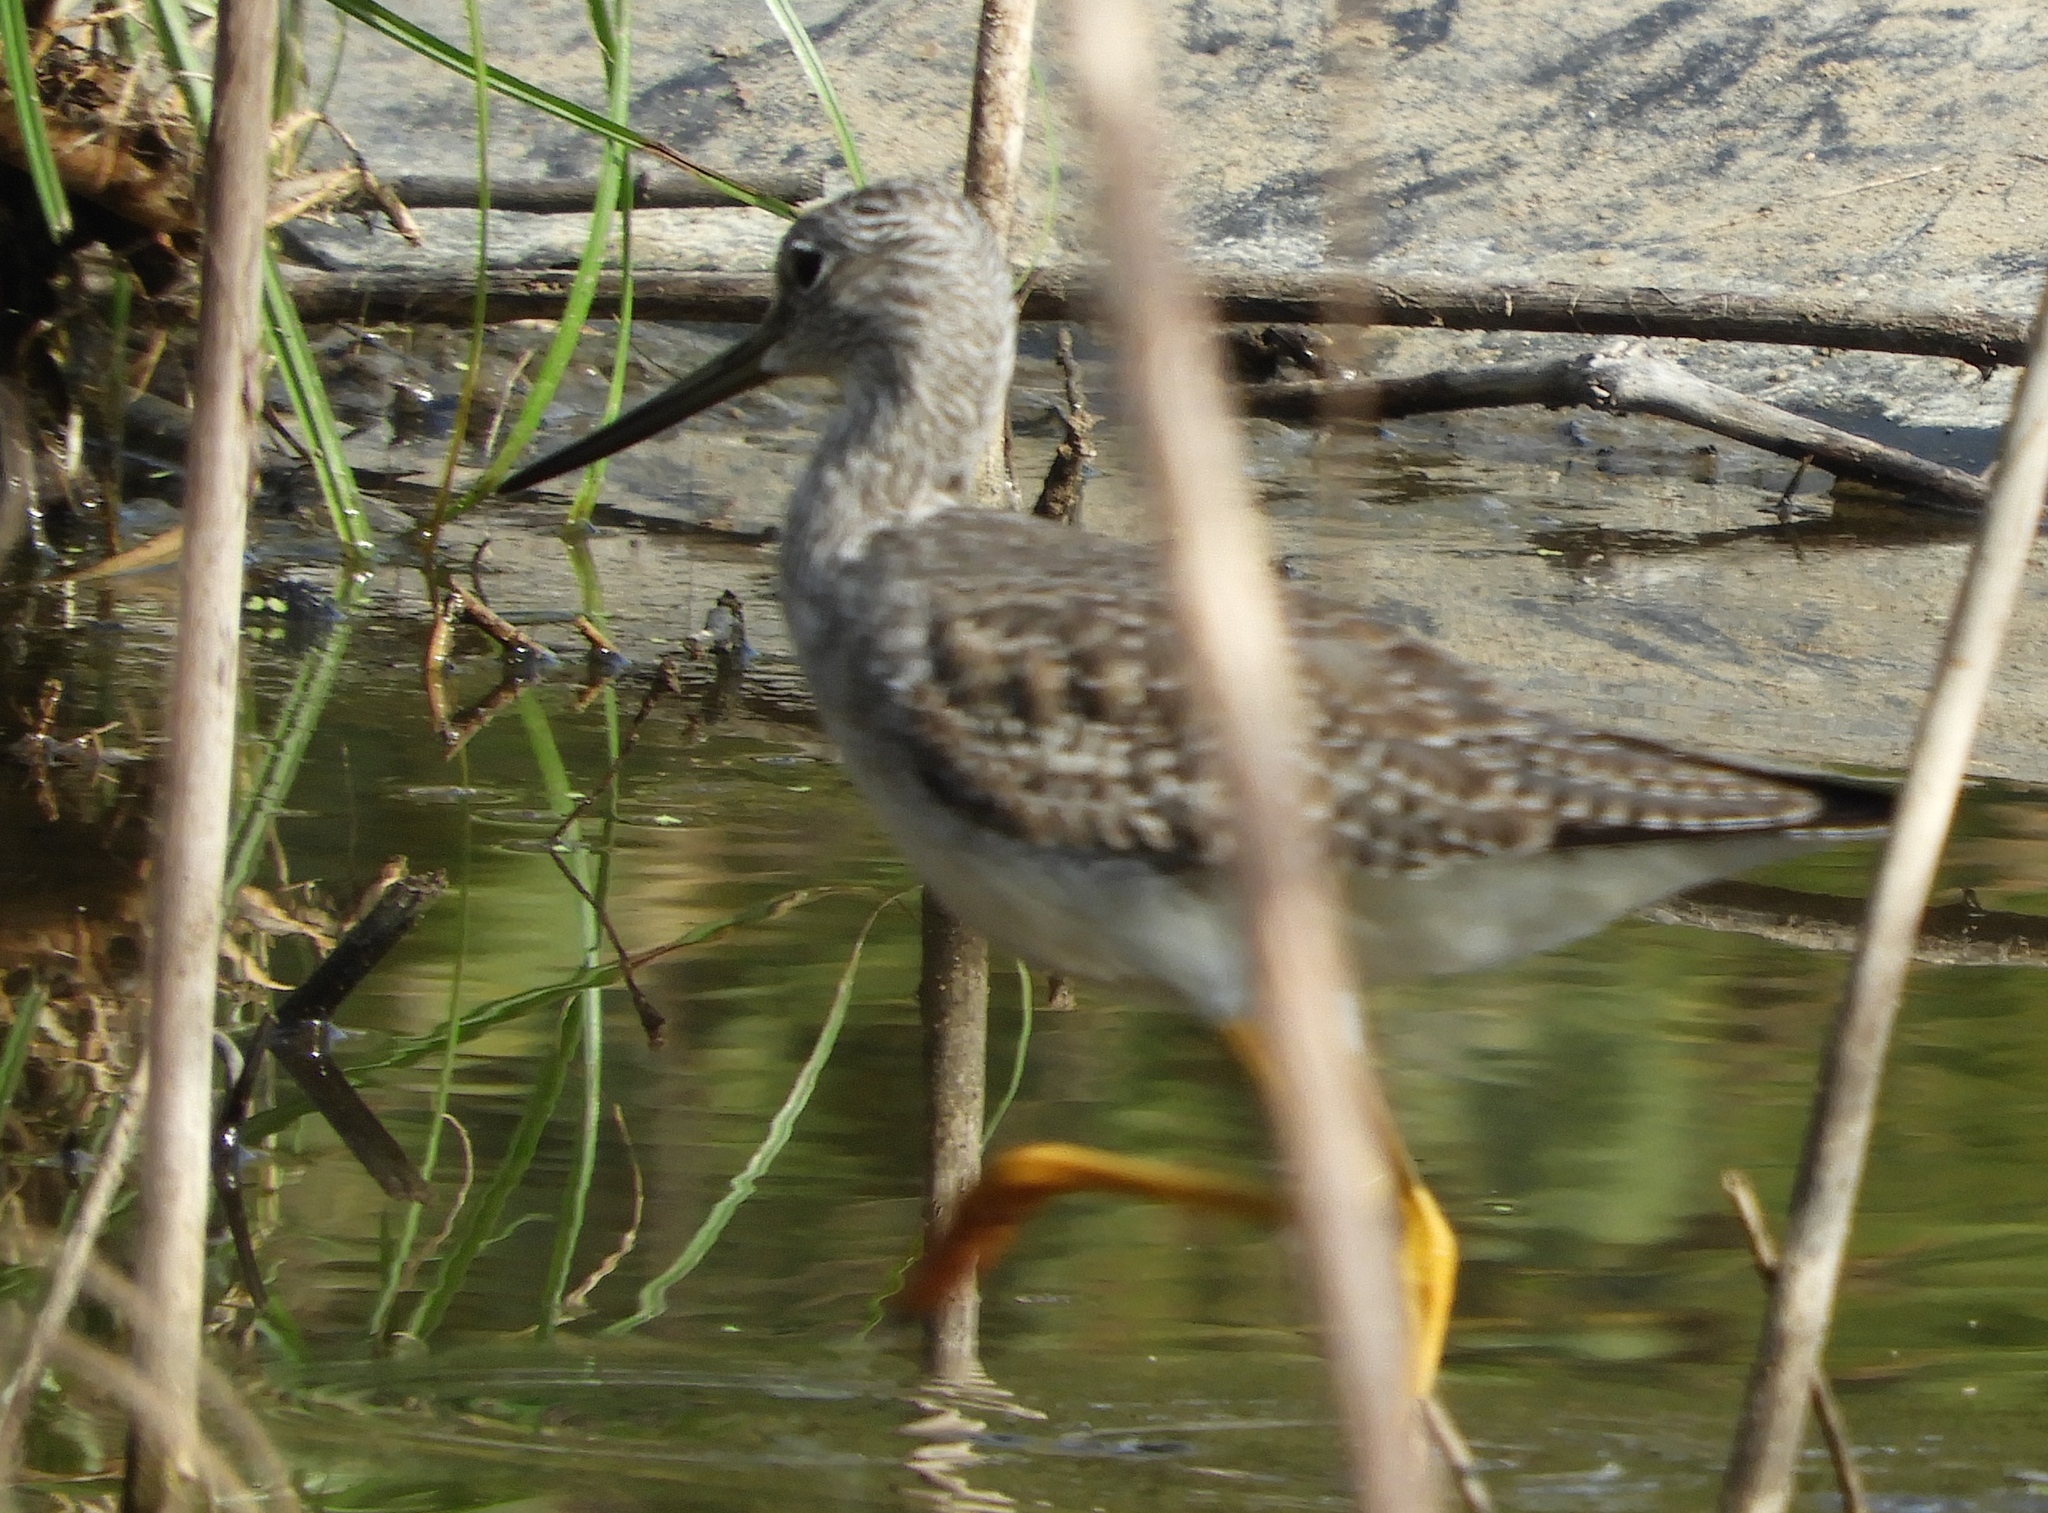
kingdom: Animalia
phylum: Chordata
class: Aves
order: Charadriiformes
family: Scolopacidae
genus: Tringa
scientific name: Tringa melanoleuca
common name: Greater yellowlegs
